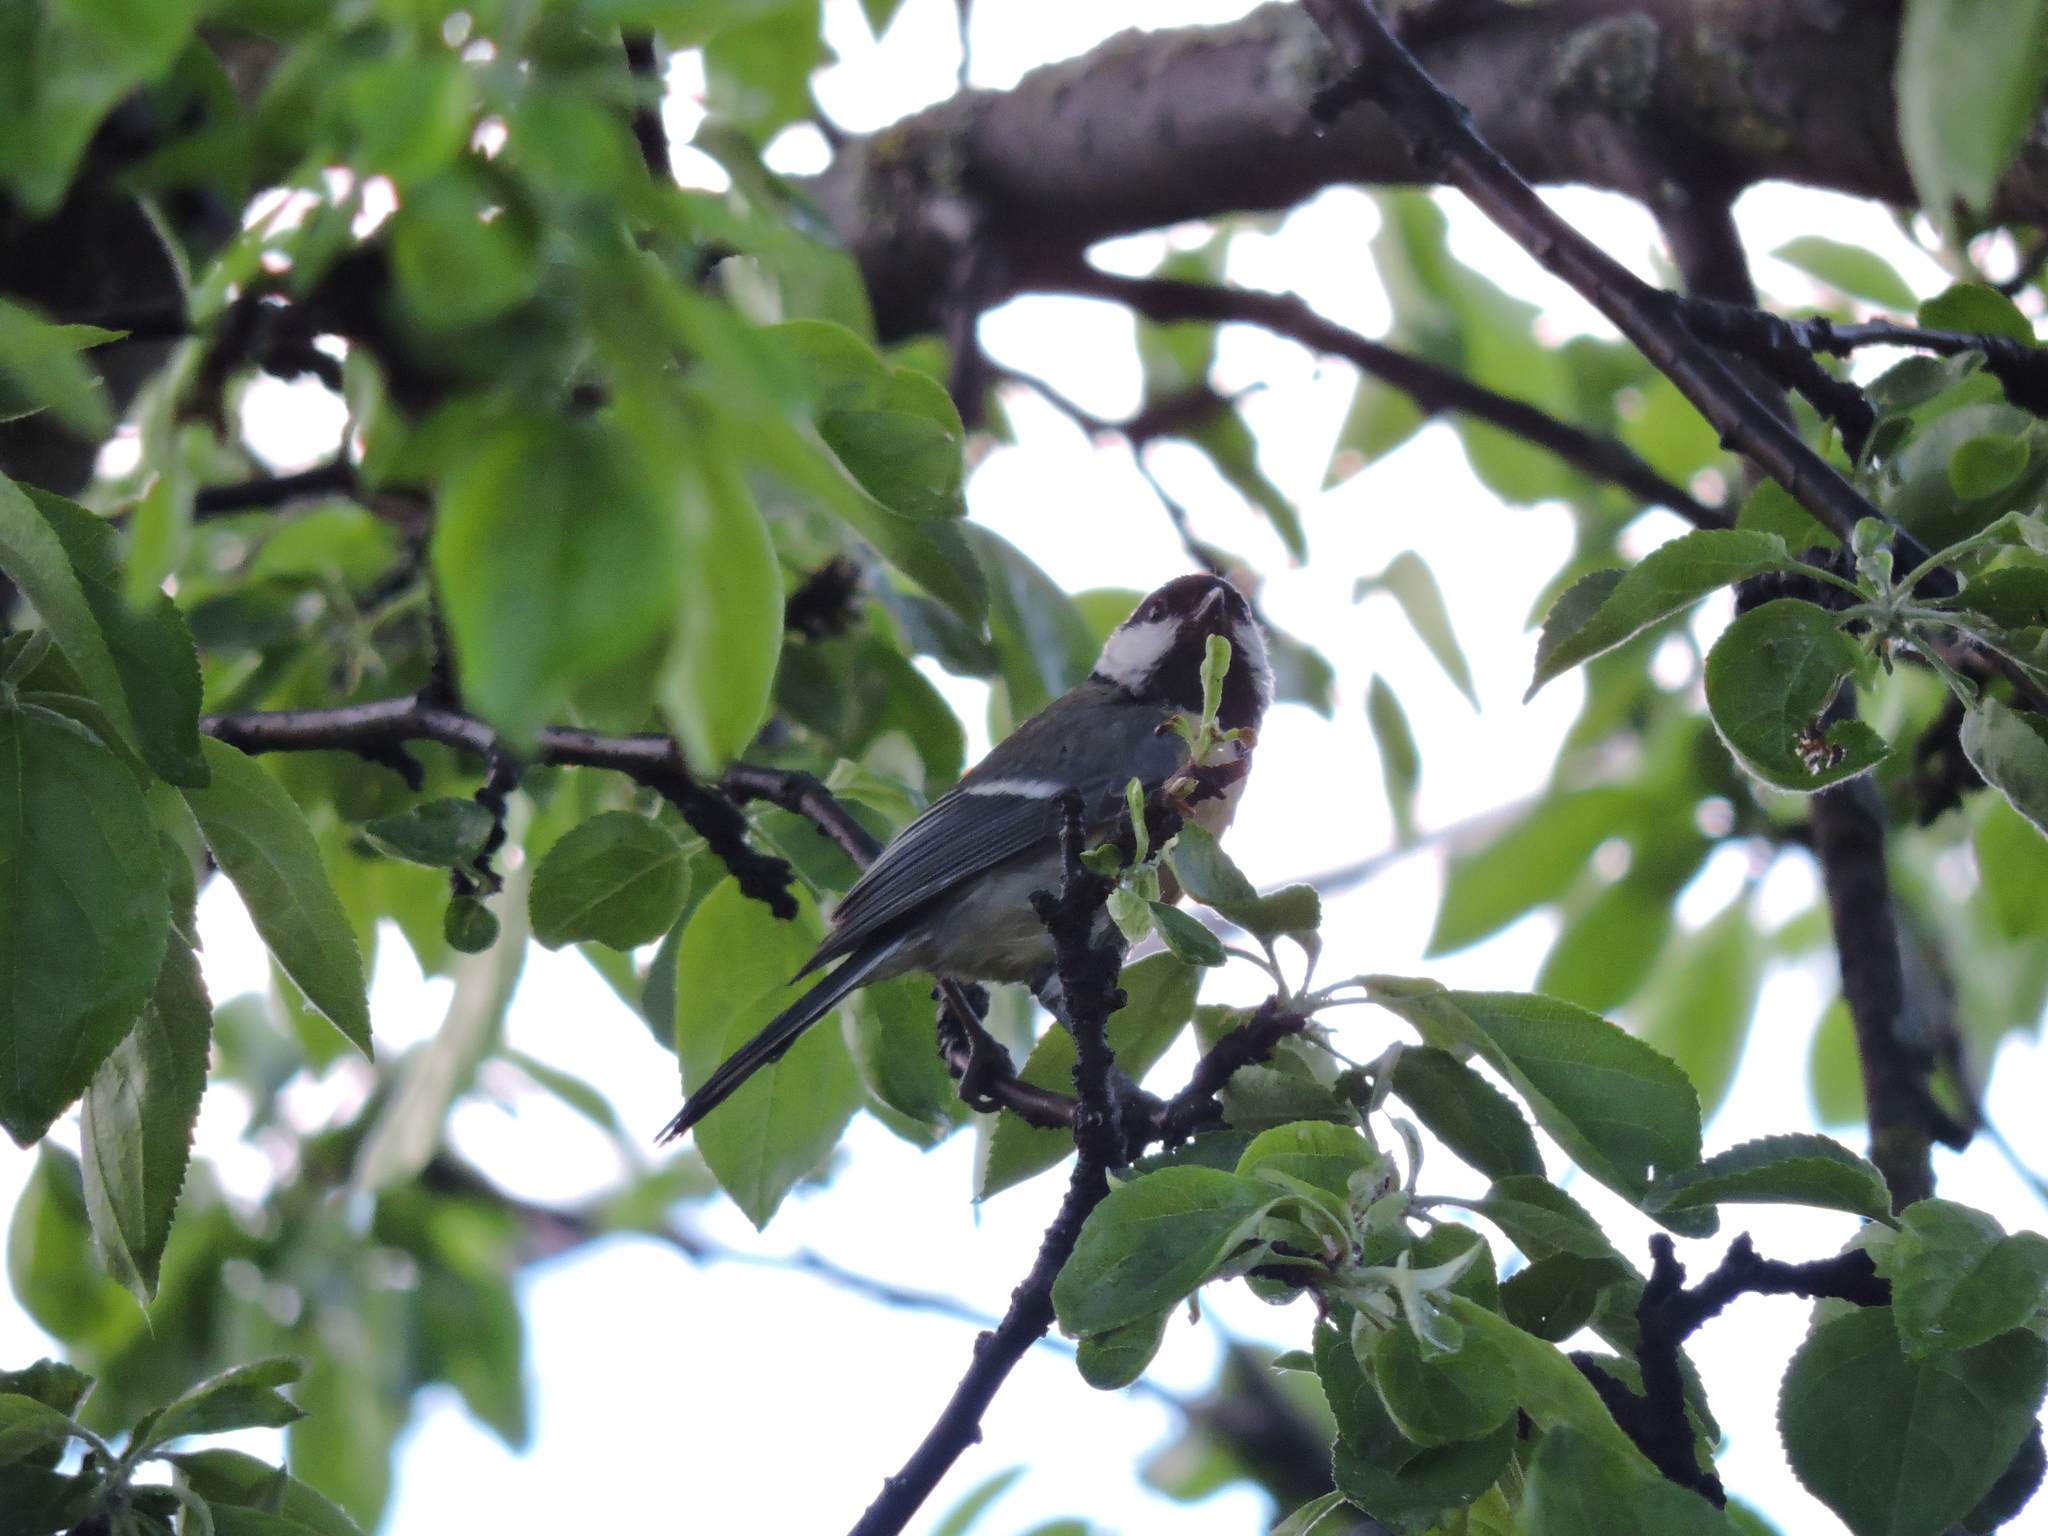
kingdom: Animalia
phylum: Chordata
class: Aves
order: Passeriformes
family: Paridae
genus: Periparus
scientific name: Periparus ater
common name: Coal tit
